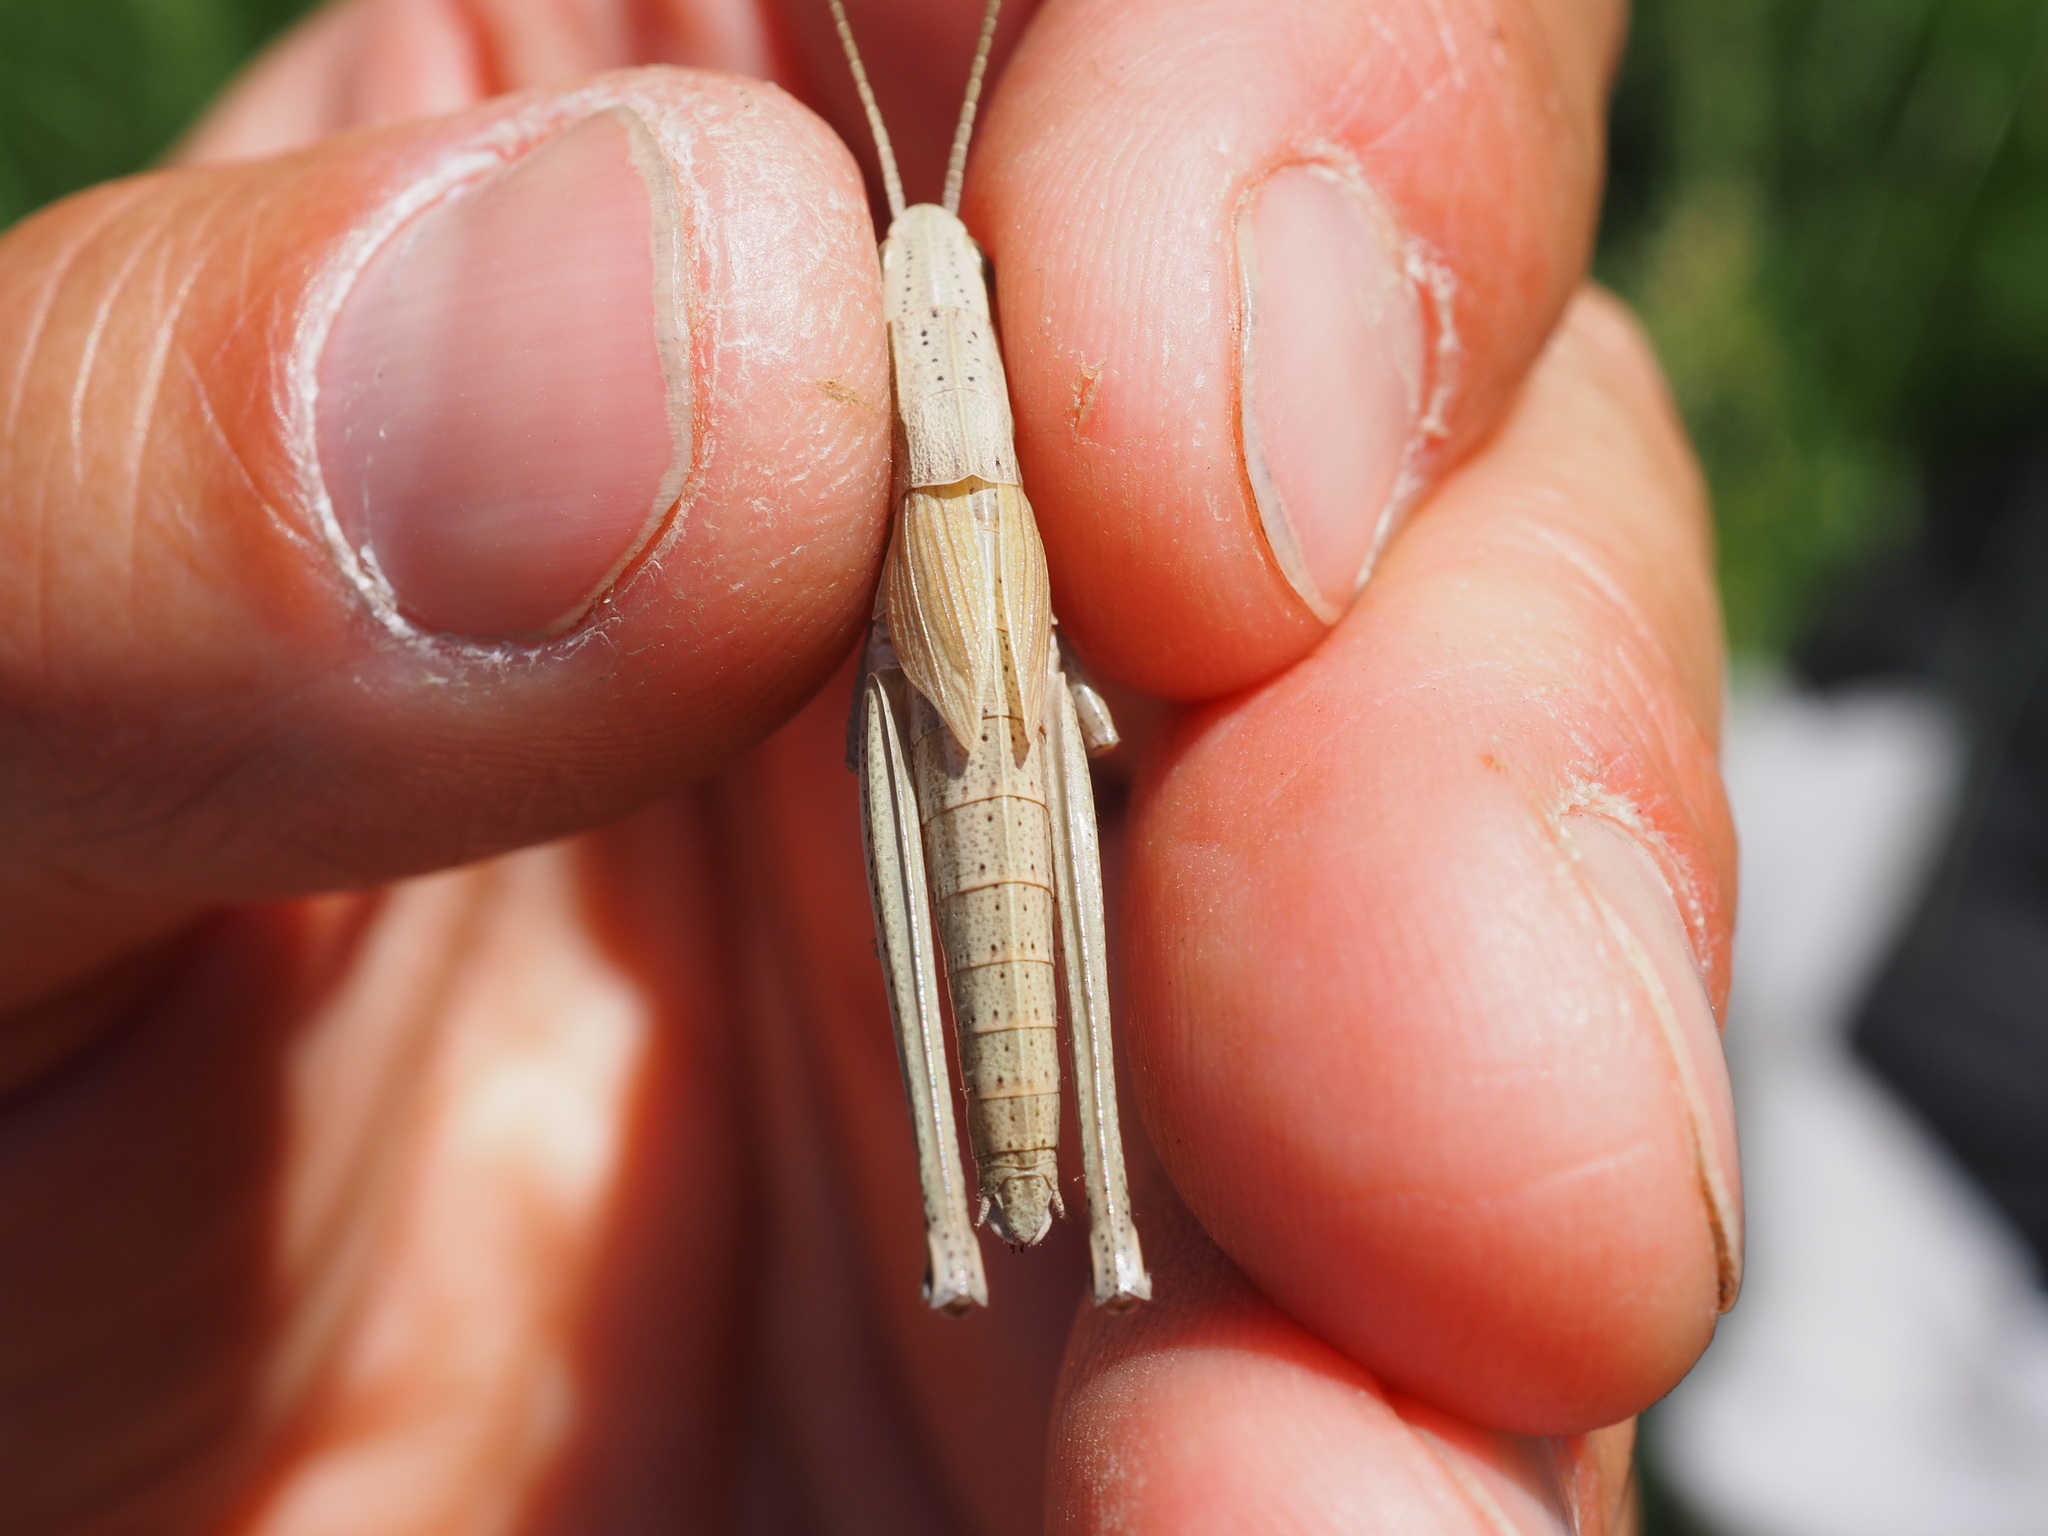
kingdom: Animalia
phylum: Arthropoda
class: Insecta
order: Orthoptera
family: Acrididae
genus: Chrysochraon
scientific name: Chrysochraon dispar
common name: Large gold grasshopper
